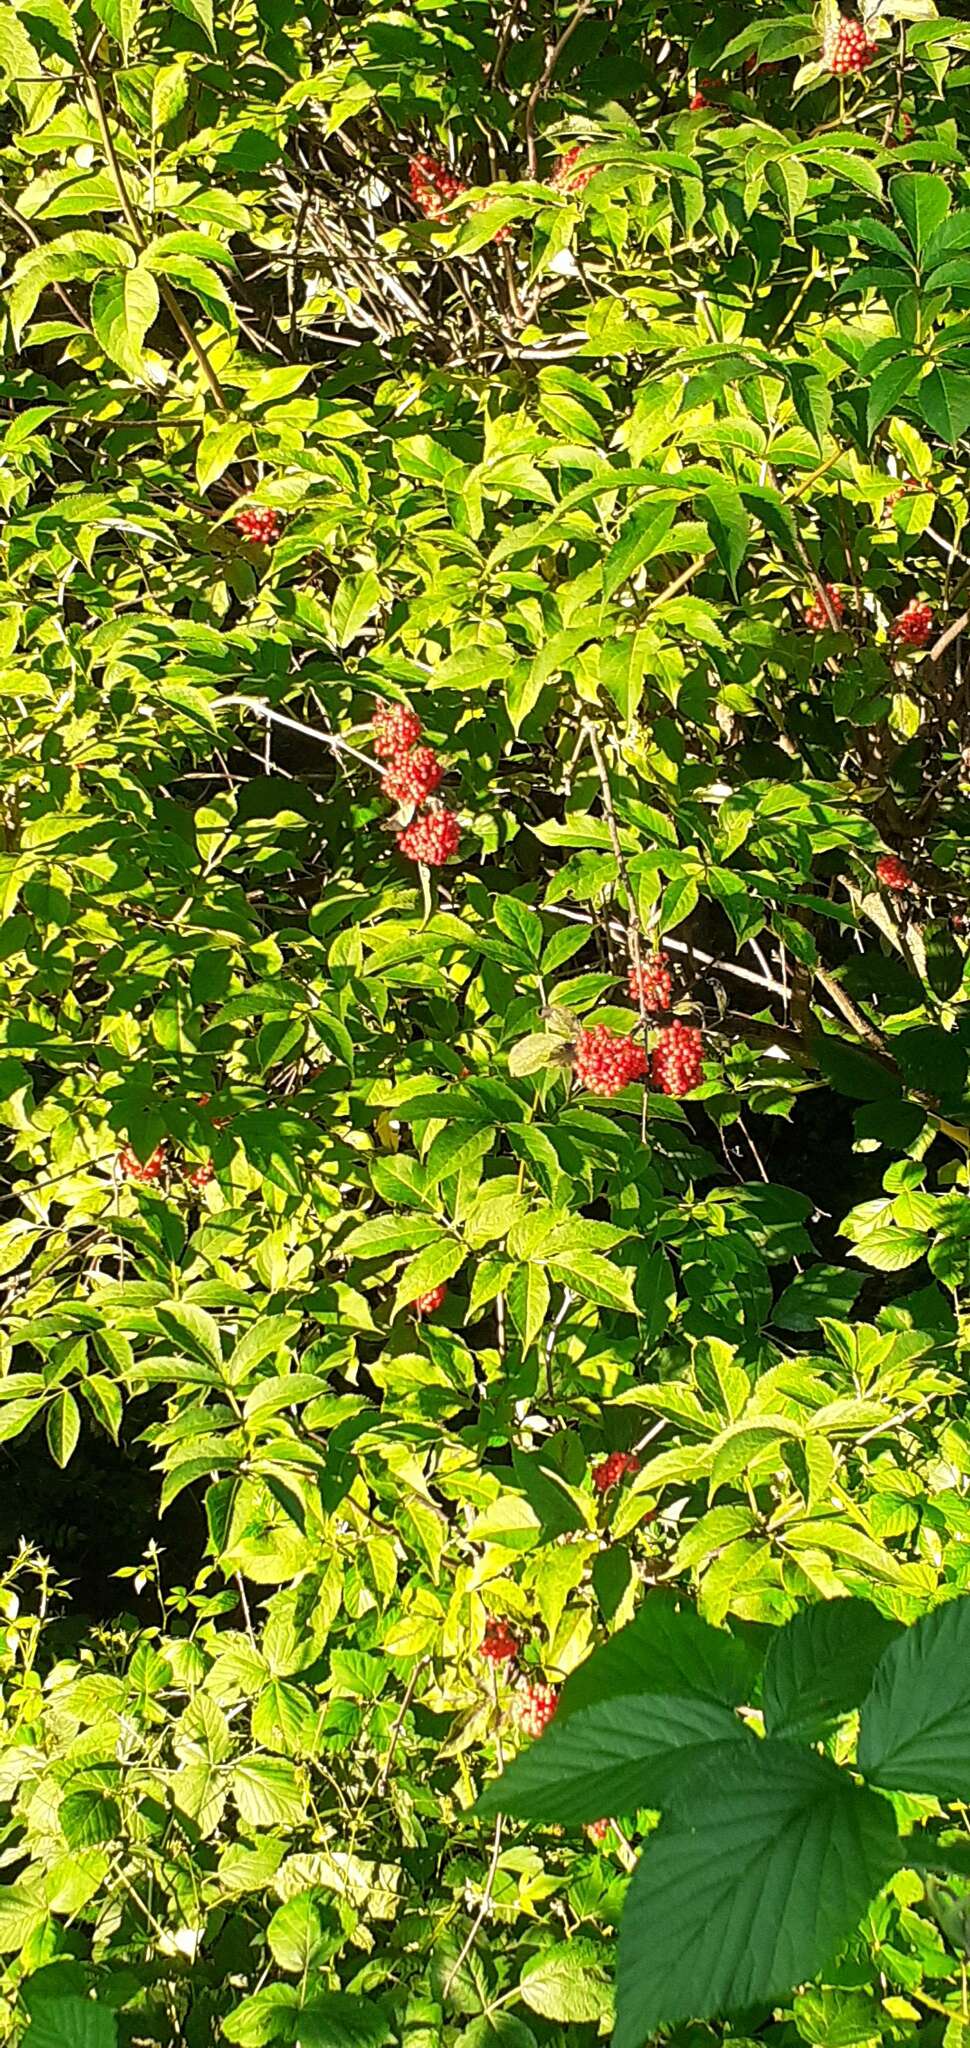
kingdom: Plantae
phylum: Tracheophyta
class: Magnoliopsida
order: Dipsacales
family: Viburnaceae
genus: Sambucus
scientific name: Sambucus racemosa
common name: Red-berried elder
